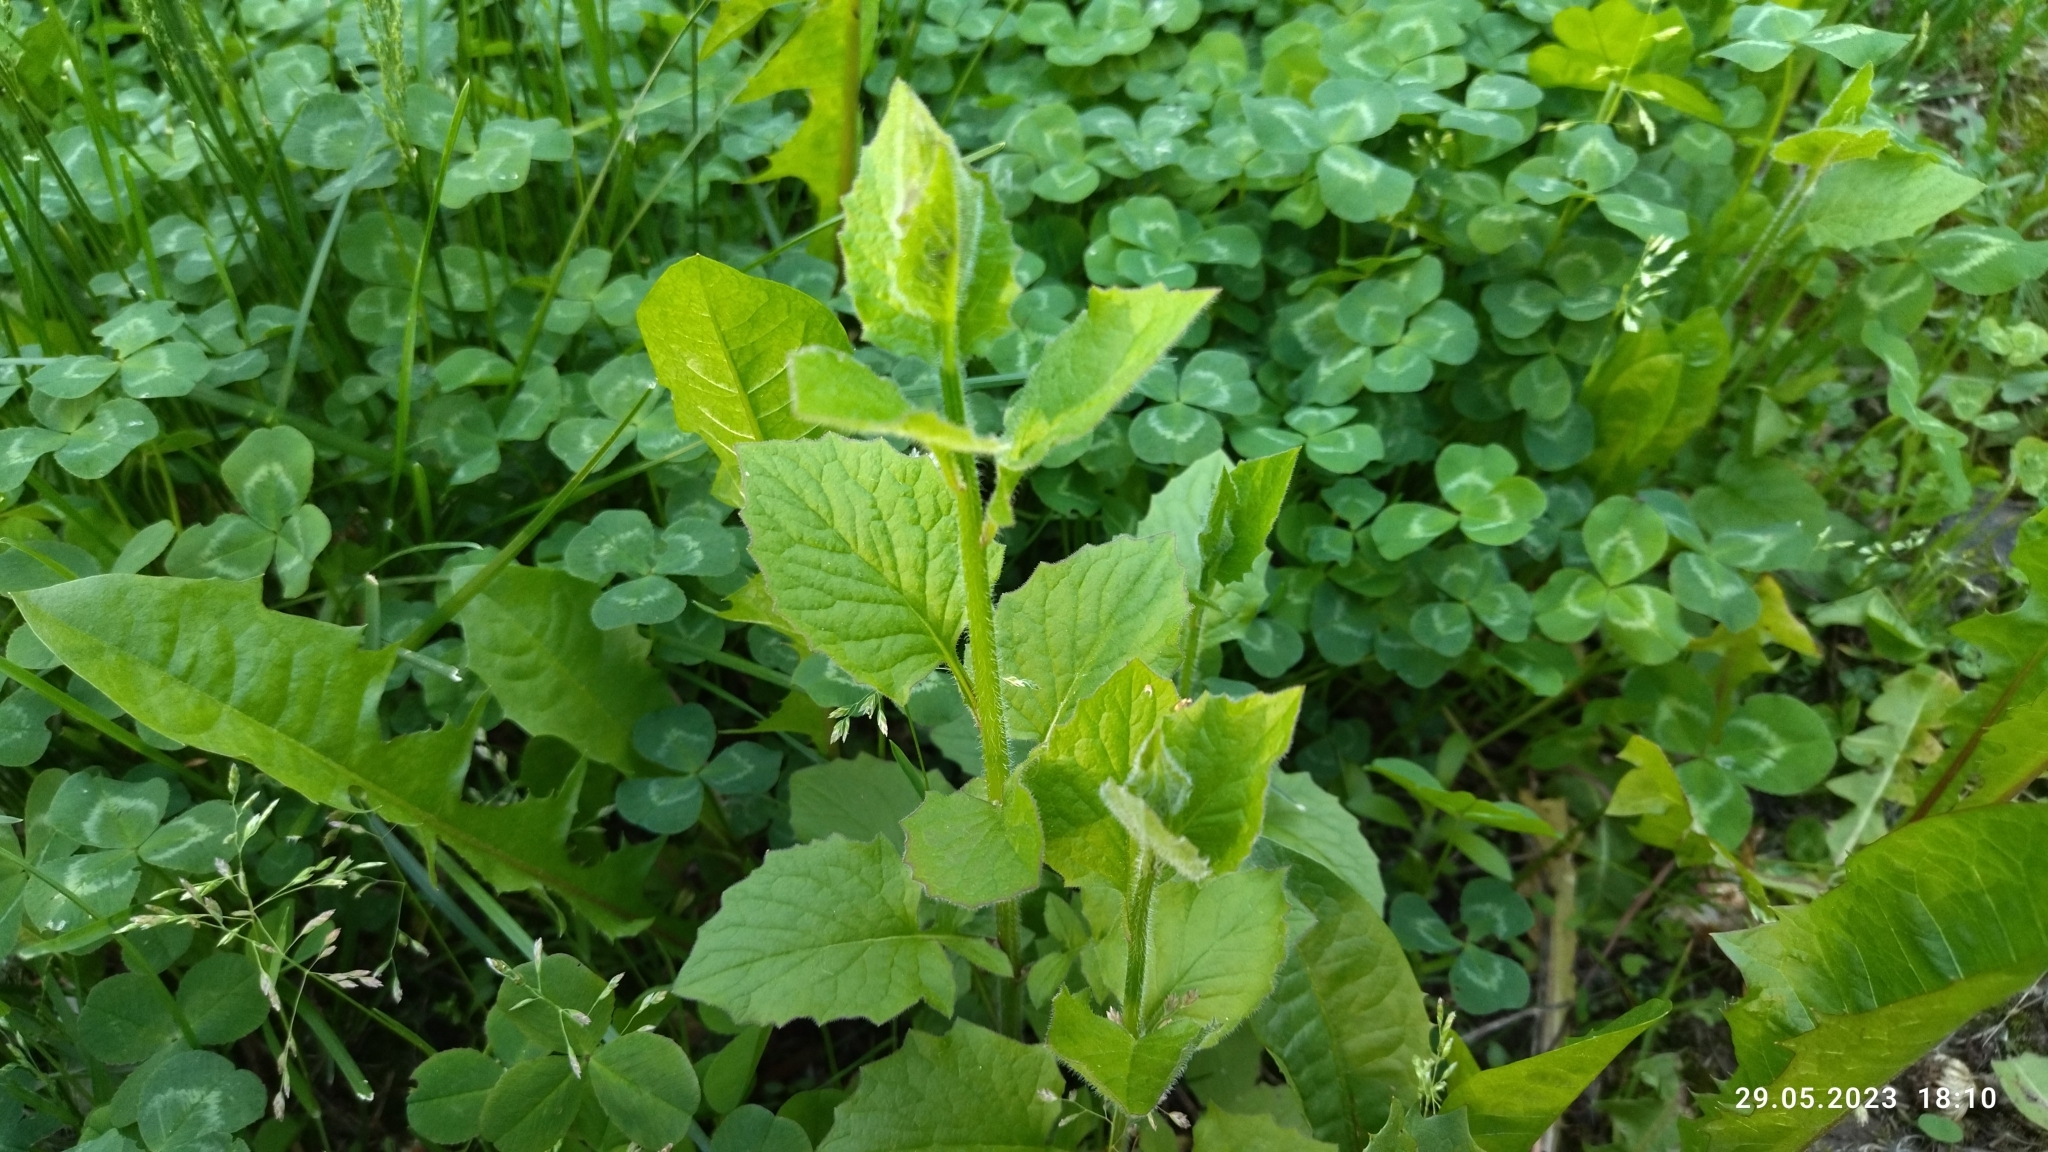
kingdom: Plantae
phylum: Tracheophyta
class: Magnoliopsida
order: Asterales
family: Asteraceae
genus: Lapsana
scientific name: Lapsana communis
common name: Nipplewort
